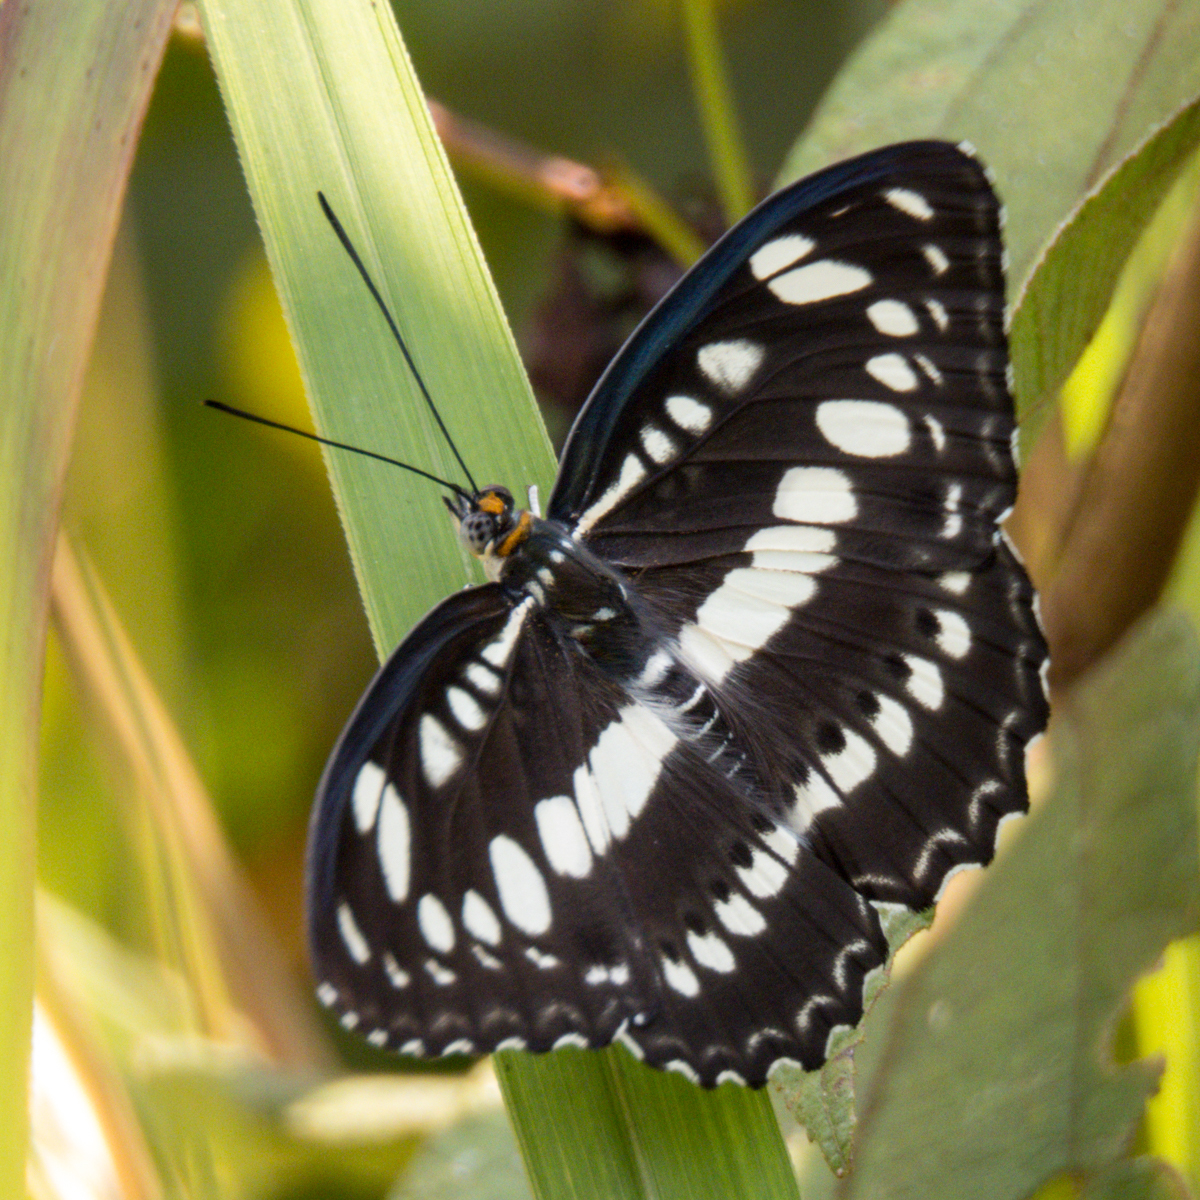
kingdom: Animalia
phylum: Arthropoda
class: Insecta
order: Lepidoptera
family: Nymphalidae
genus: Parathyma
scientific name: Parathyma perius
